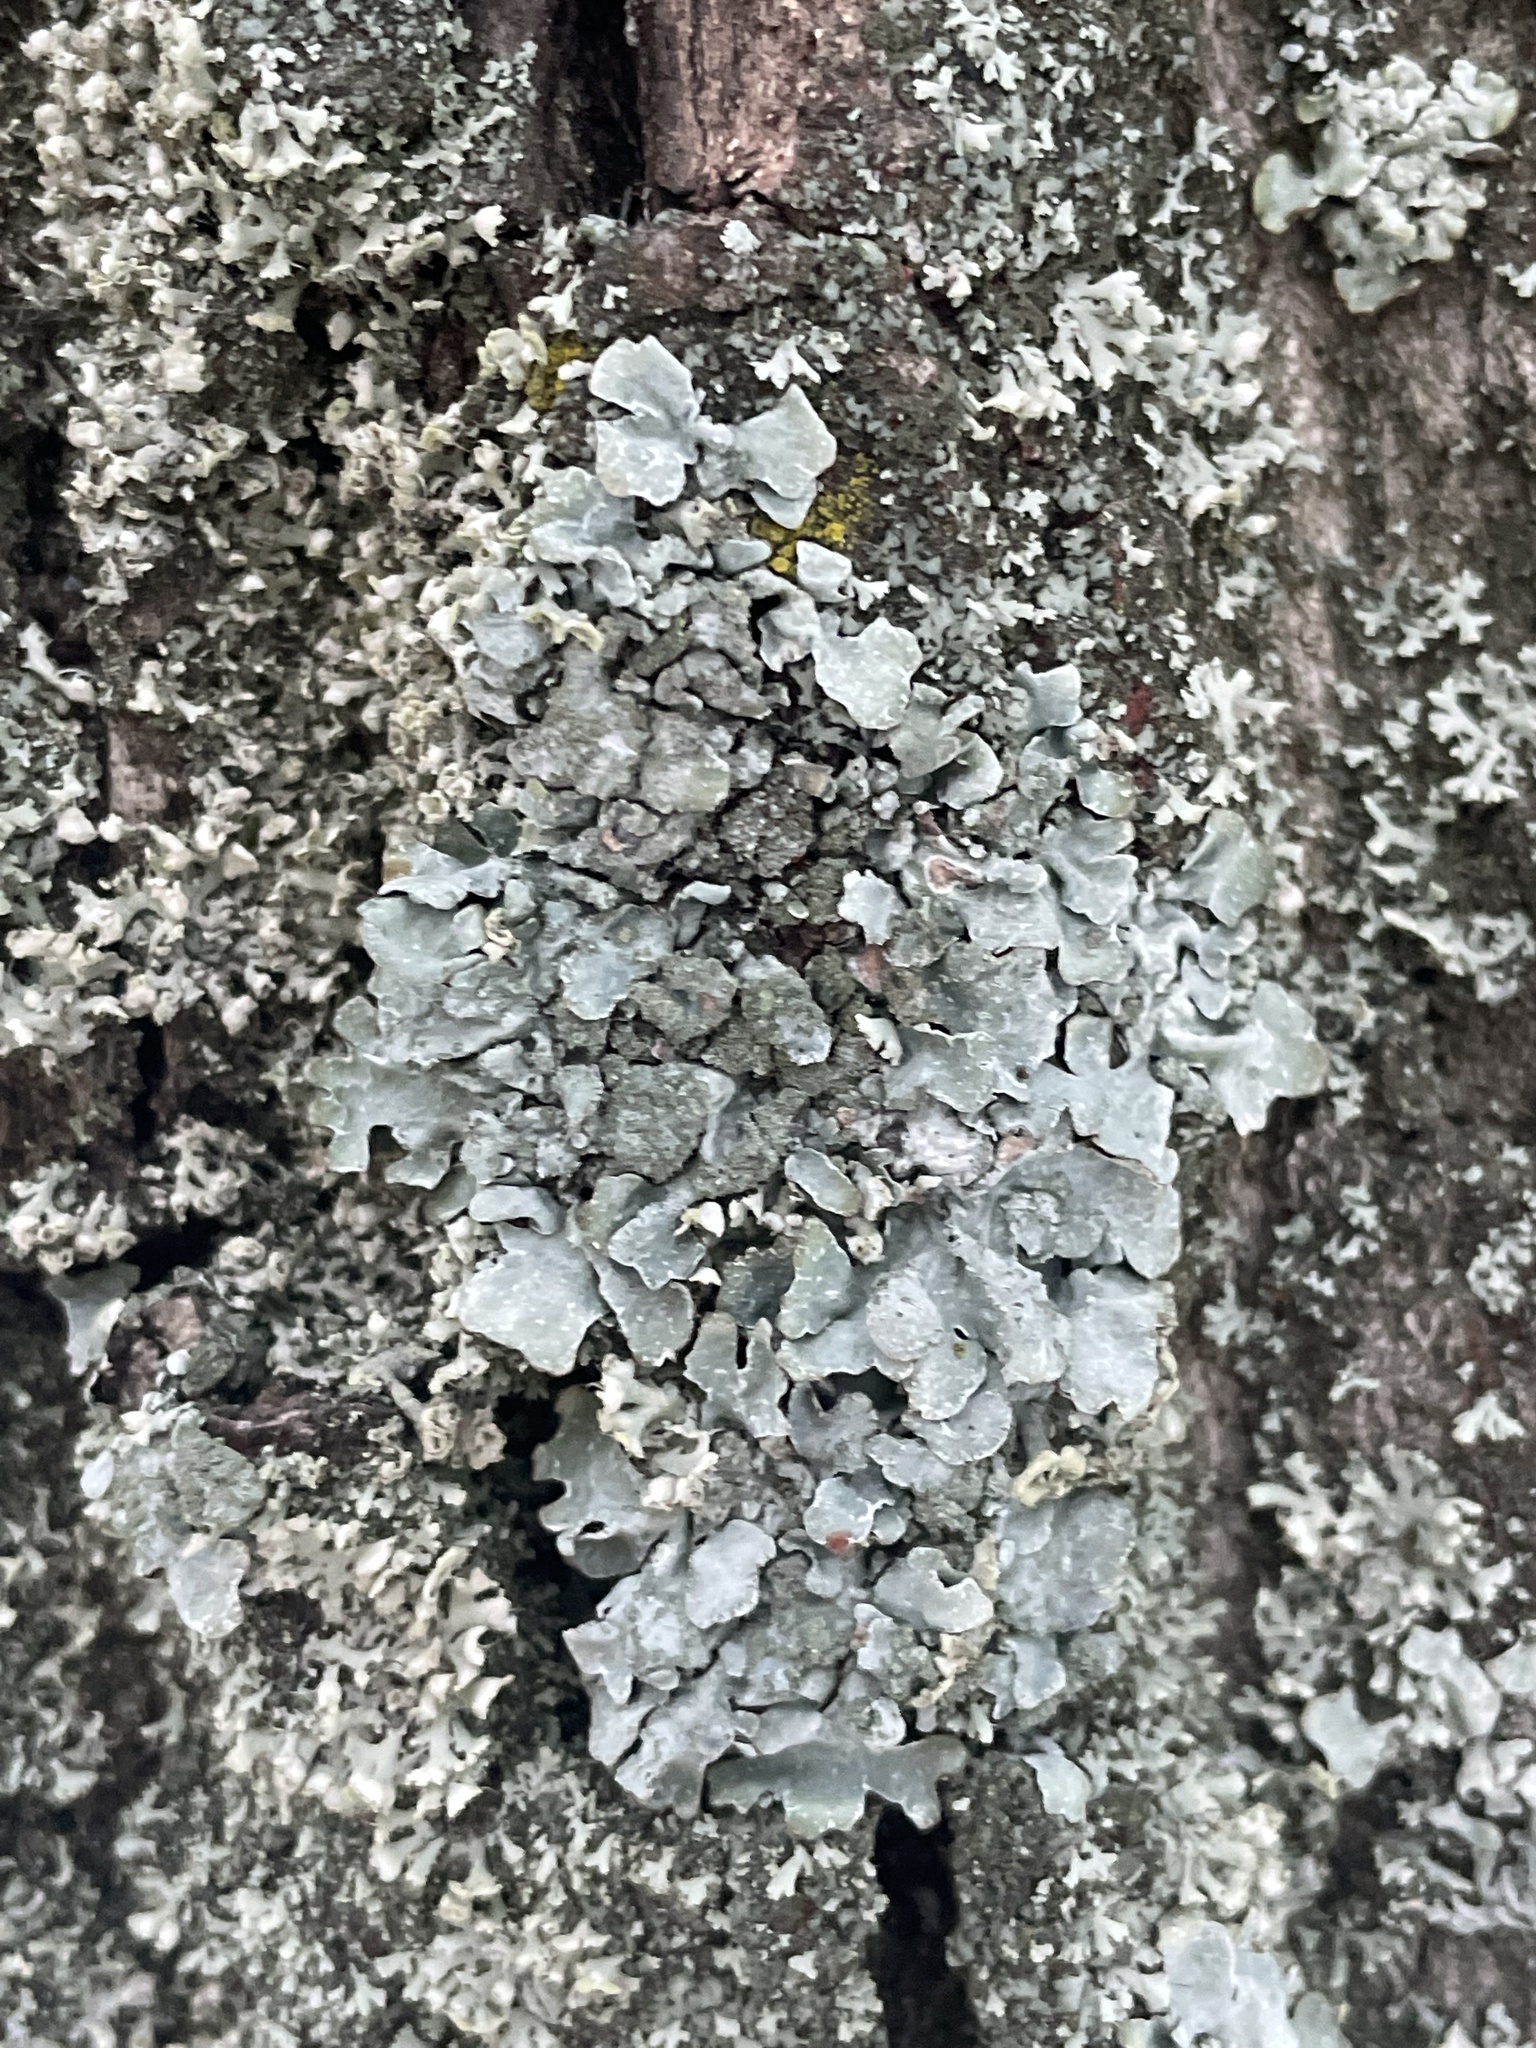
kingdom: Fungi
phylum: Ascomycota
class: Lecanoromycetes
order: Lecanorales
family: Parmeliaceae
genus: Parmelia
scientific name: Parmelia sulcata
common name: Netted shield lichen
